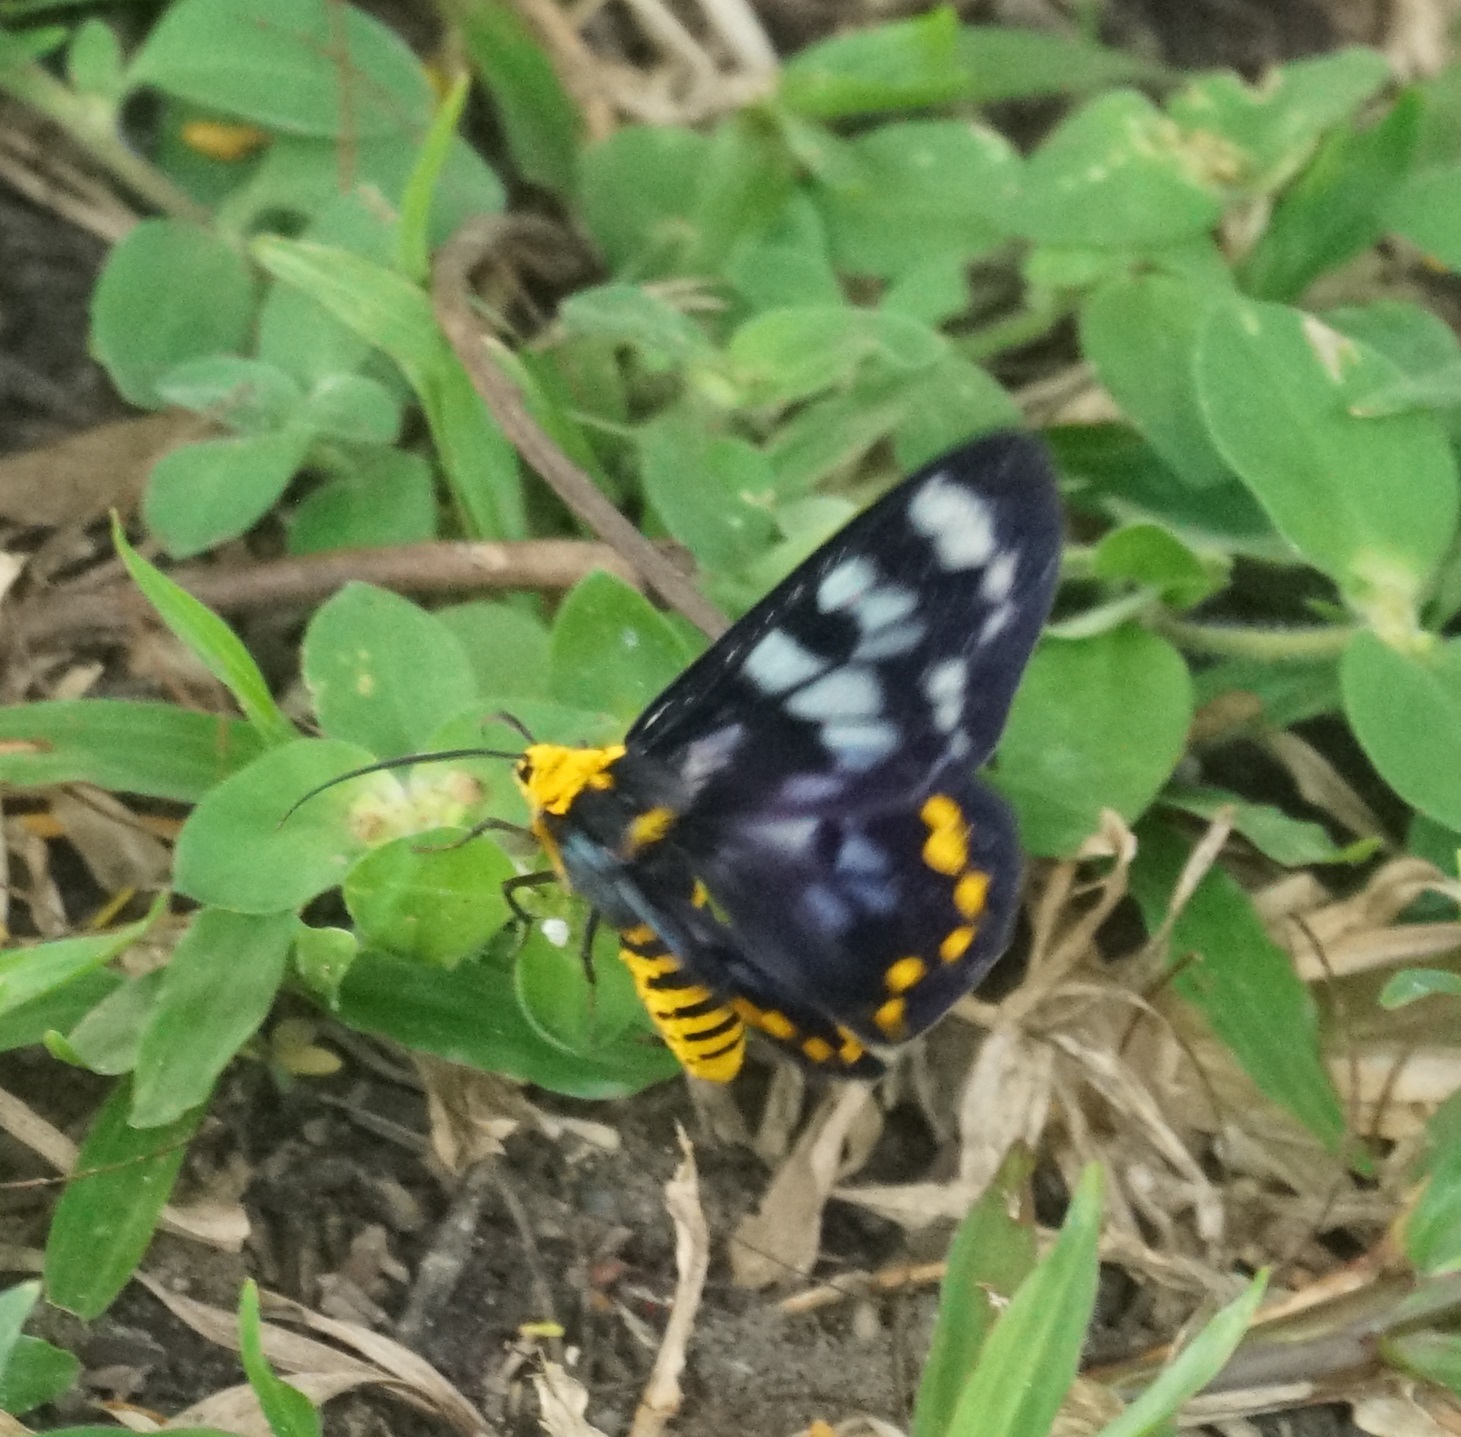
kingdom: Animalia
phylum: Arthropoda
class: Insecta
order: Lepidoptera
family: Geometridae
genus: Dysphania
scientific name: Dysphania numana
